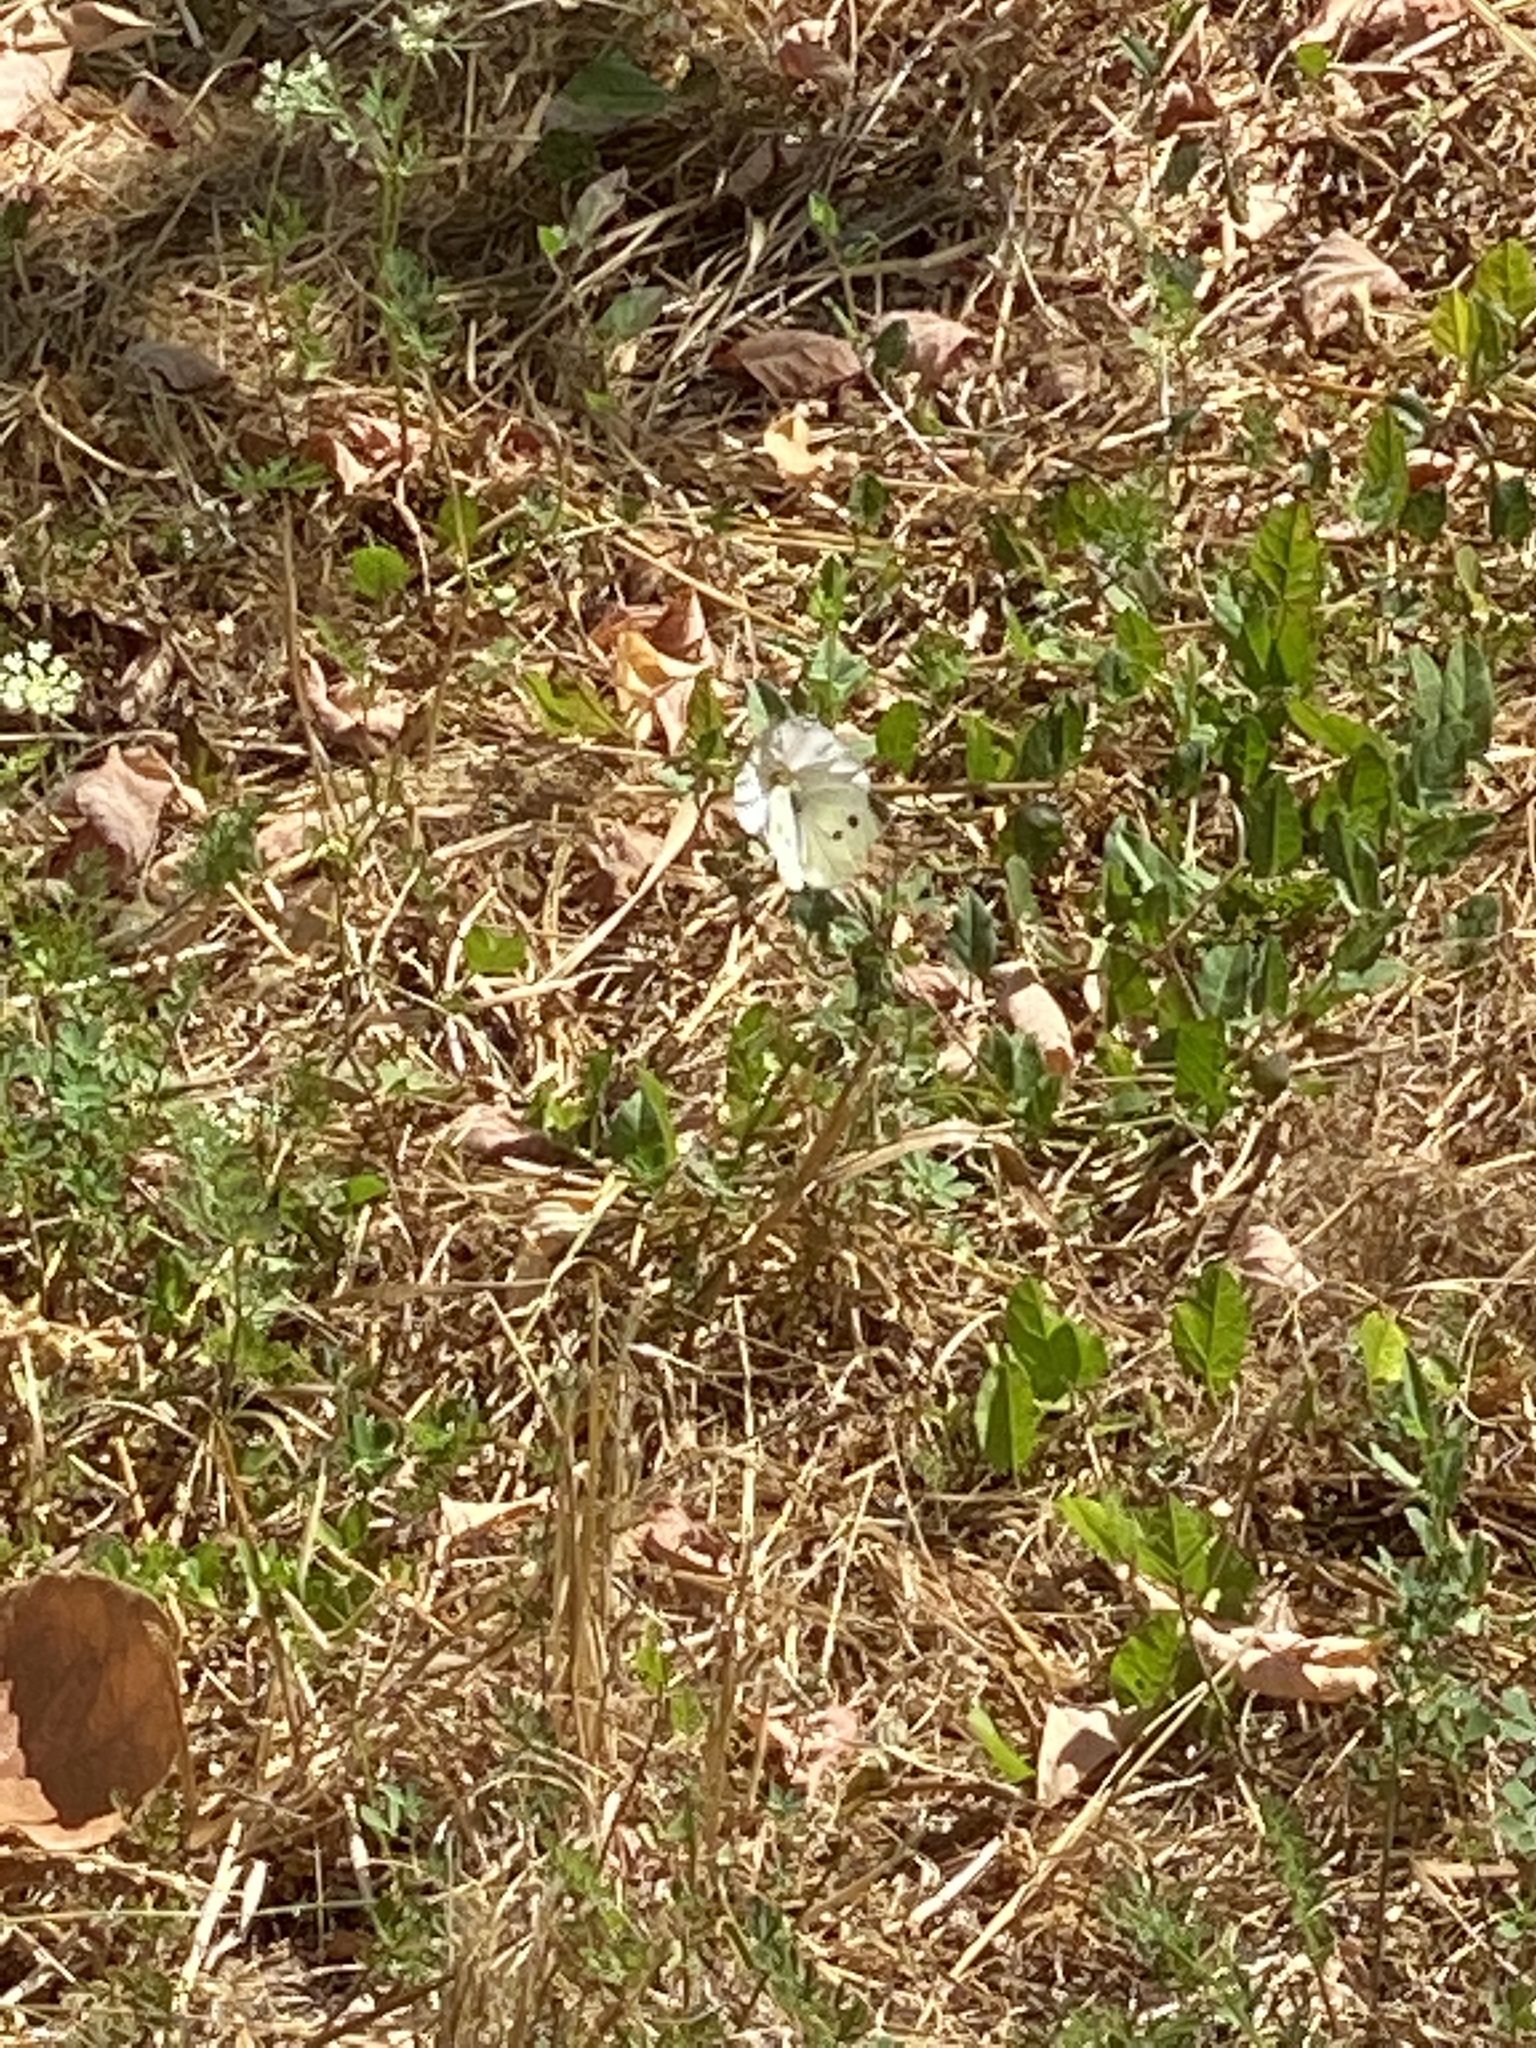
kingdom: Animalia
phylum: Arthropoda
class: Insecta
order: Lepidoptera
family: Pieridae
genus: Pieris
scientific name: Pieris rapae
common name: Small white
